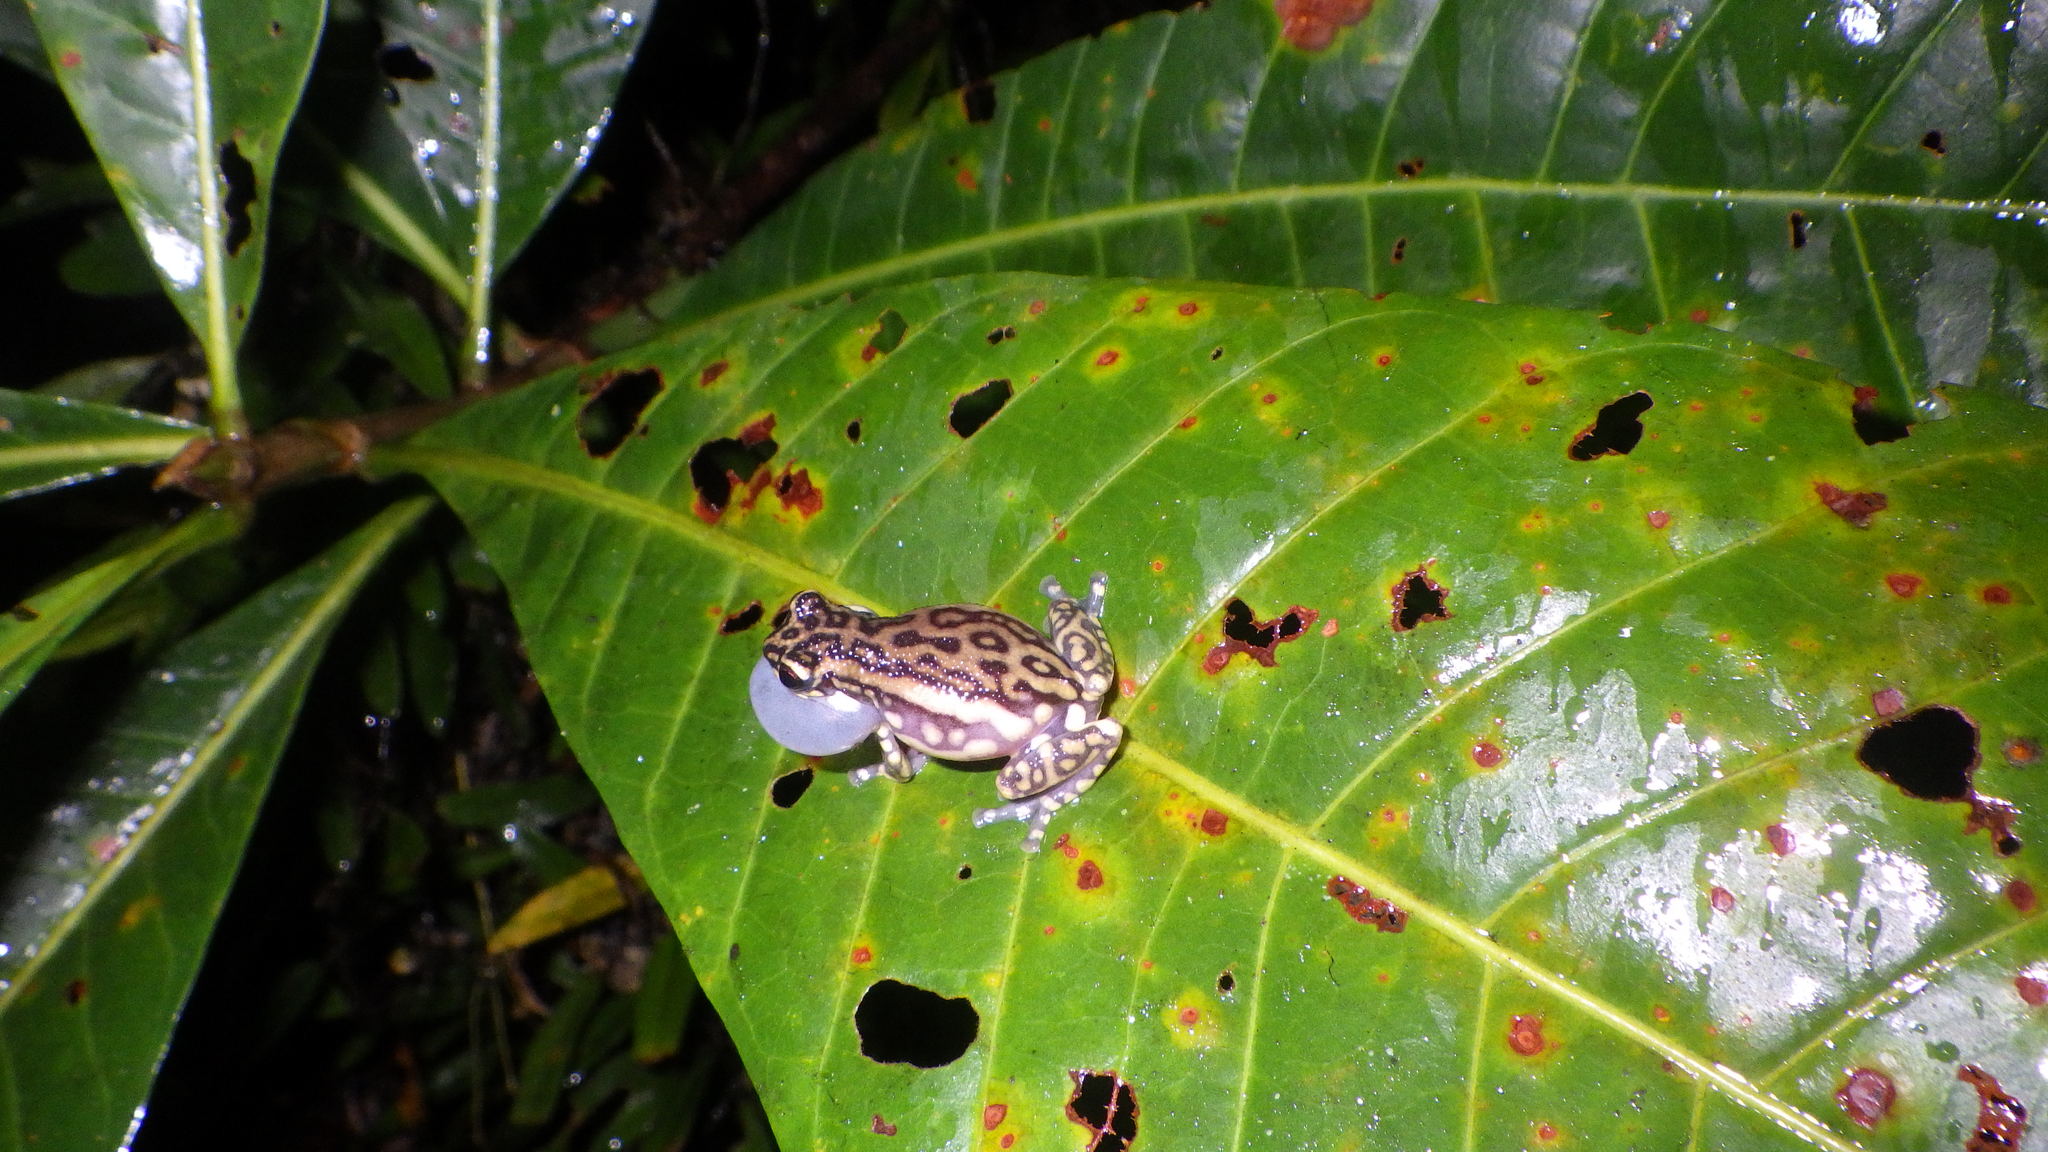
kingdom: Animalia
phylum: Chordata
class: Amphibia
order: Anura
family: Allophrynidae
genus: Allophryne
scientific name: Allophryne ruthveni
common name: Tukeit hill frog
